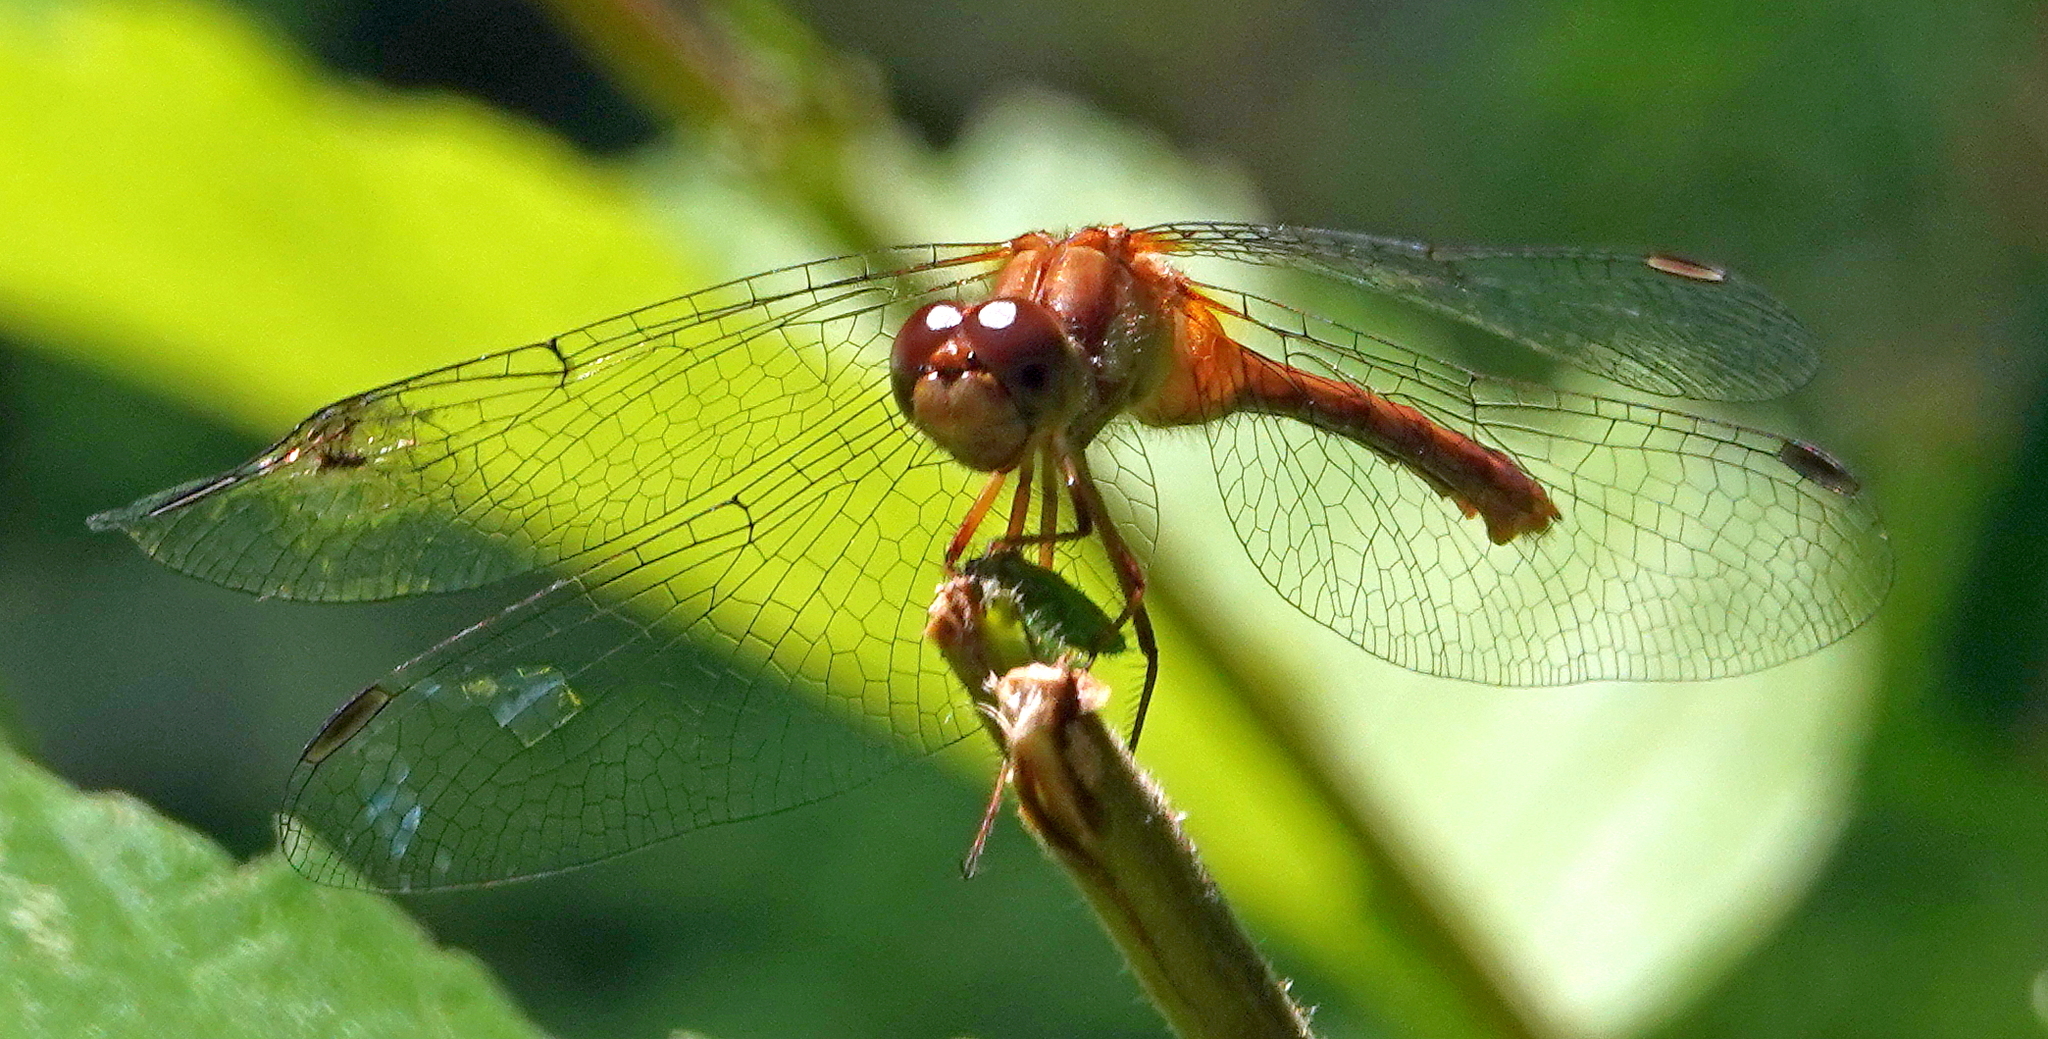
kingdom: Animalia
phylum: Arthropoda
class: Insecta
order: Odonata
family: Libellulidae
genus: Sympetrum
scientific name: Sympetrum vicinum
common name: Autumn meadowhawk
